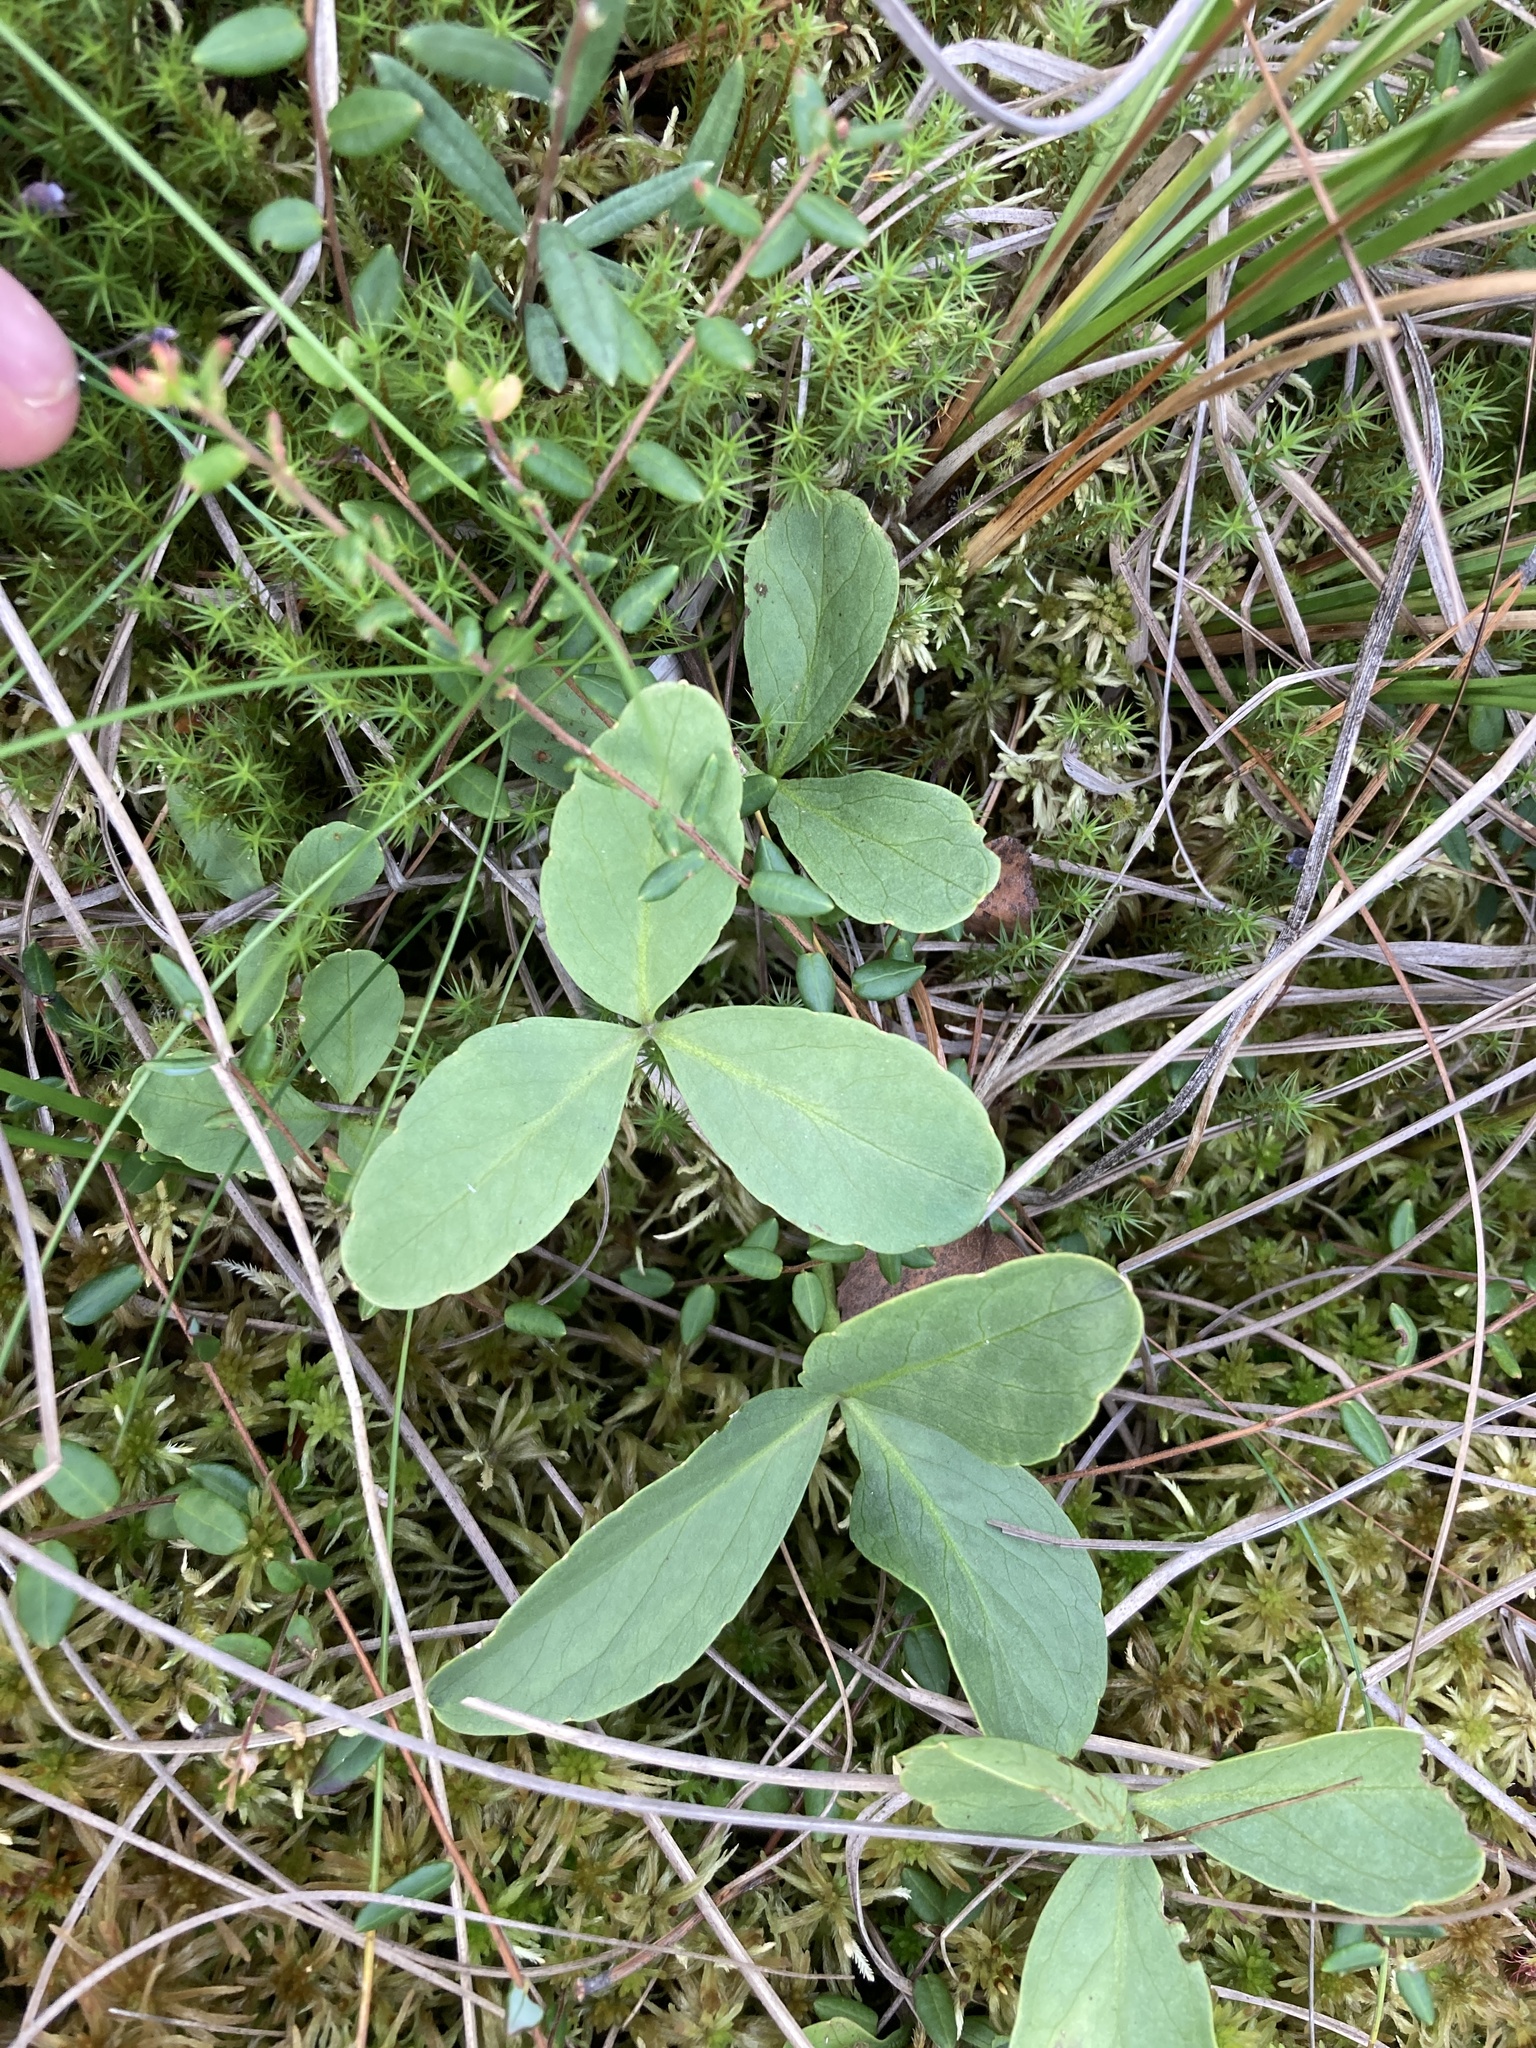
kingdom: Plantae
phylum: Tracheophyta
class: Magnoliopsida
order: Asterales
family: Menyanthaceae
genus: Menyanthes
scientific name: Menyanthes trifoliata
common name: Bogbean
